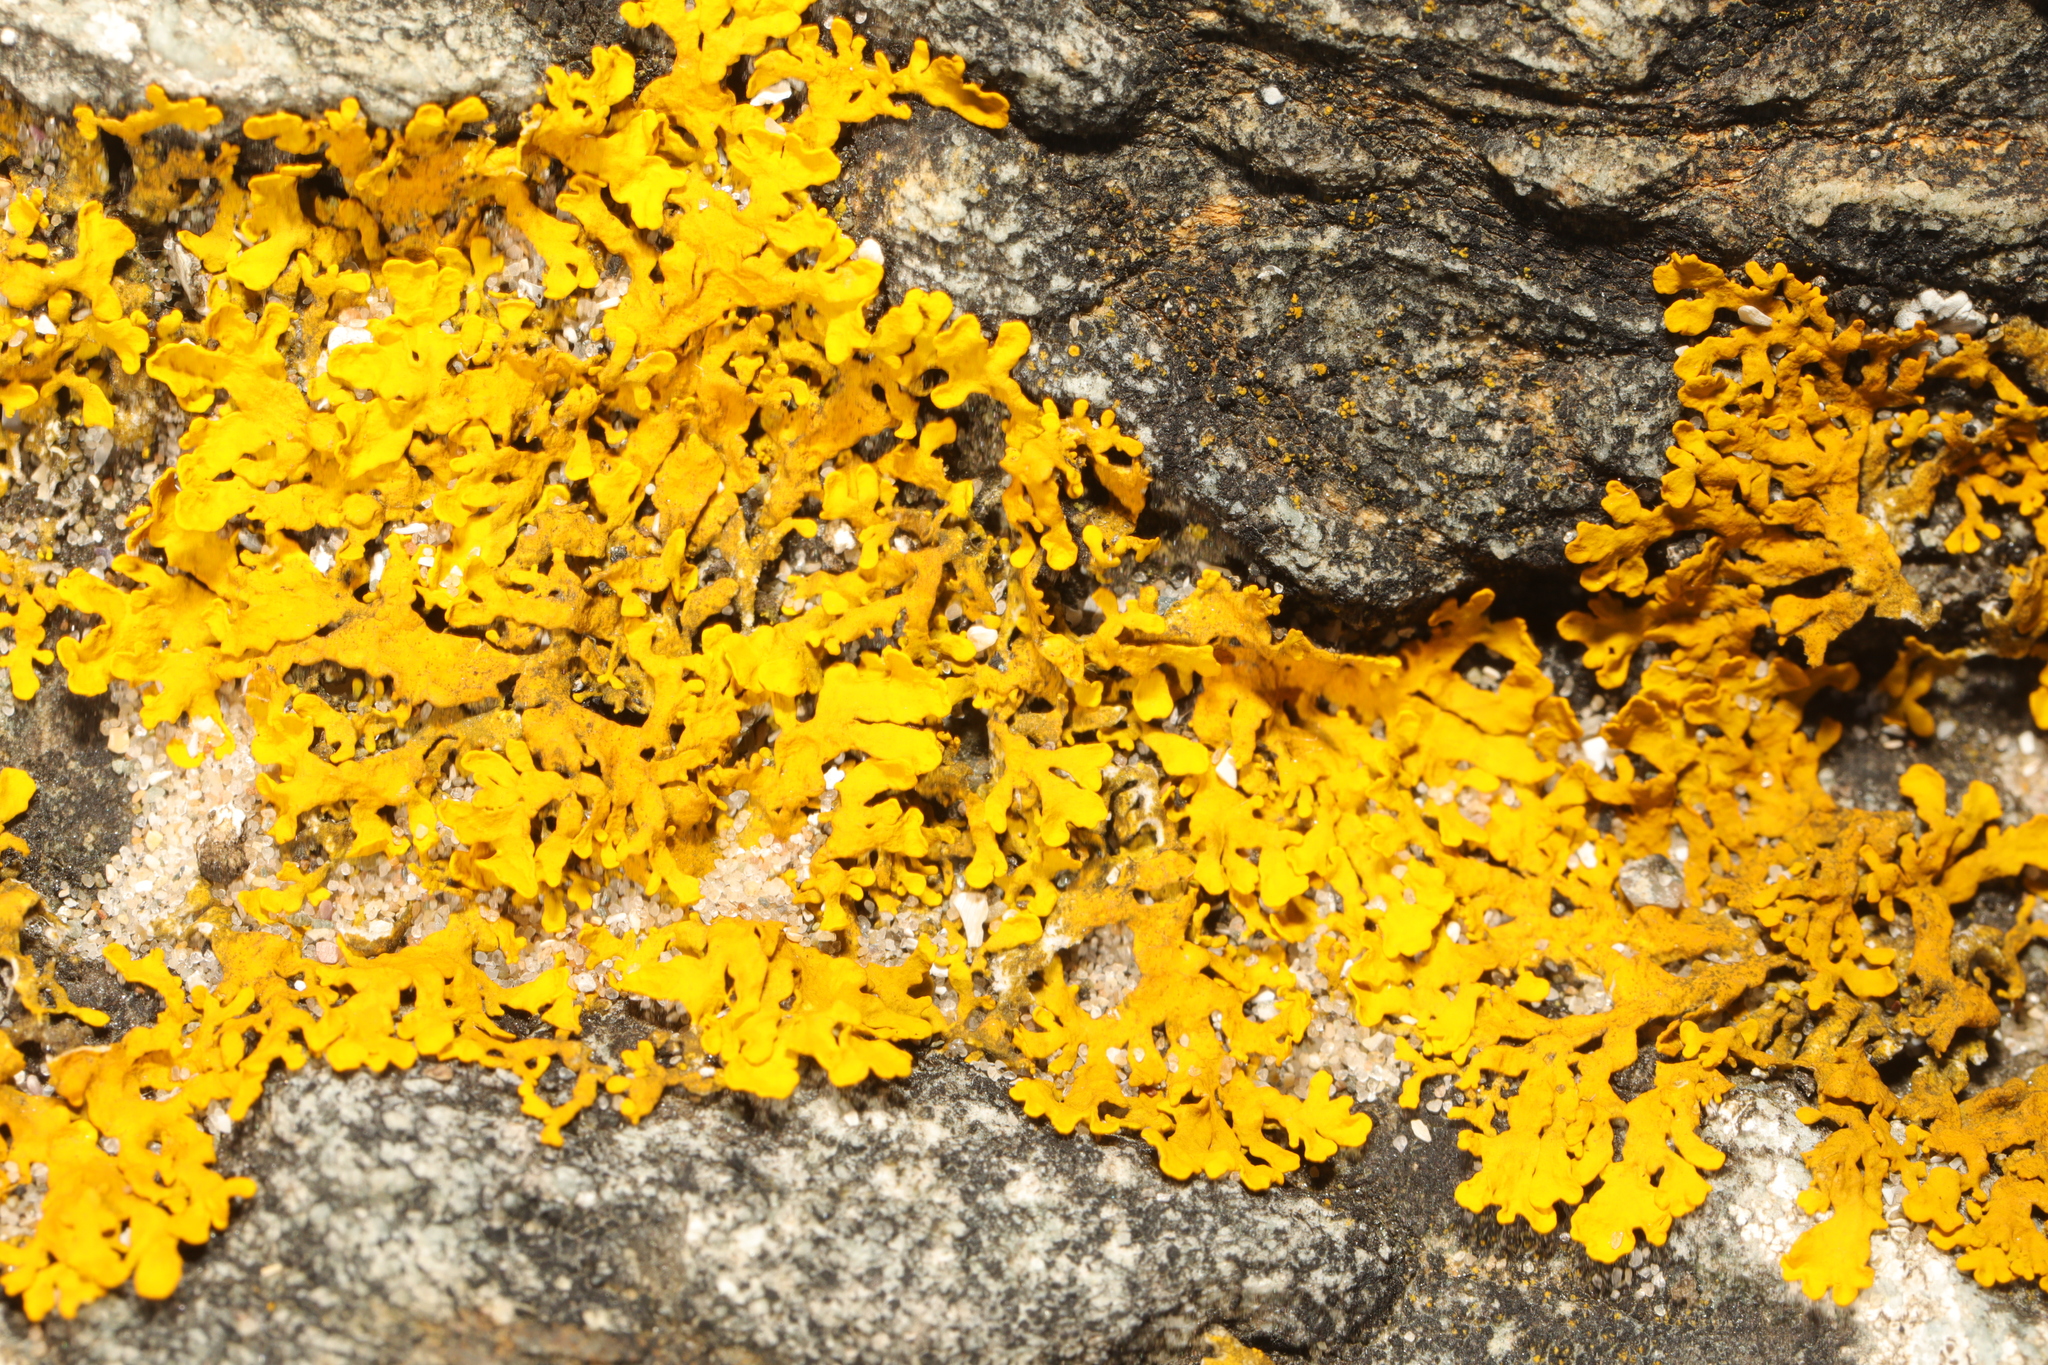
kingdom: Fungi
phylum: Ascomycota
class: Lecanoromycetes
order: Teloschistales
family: Teloschistaceae
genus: Xanthoria
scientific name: Xanthoria aureola
